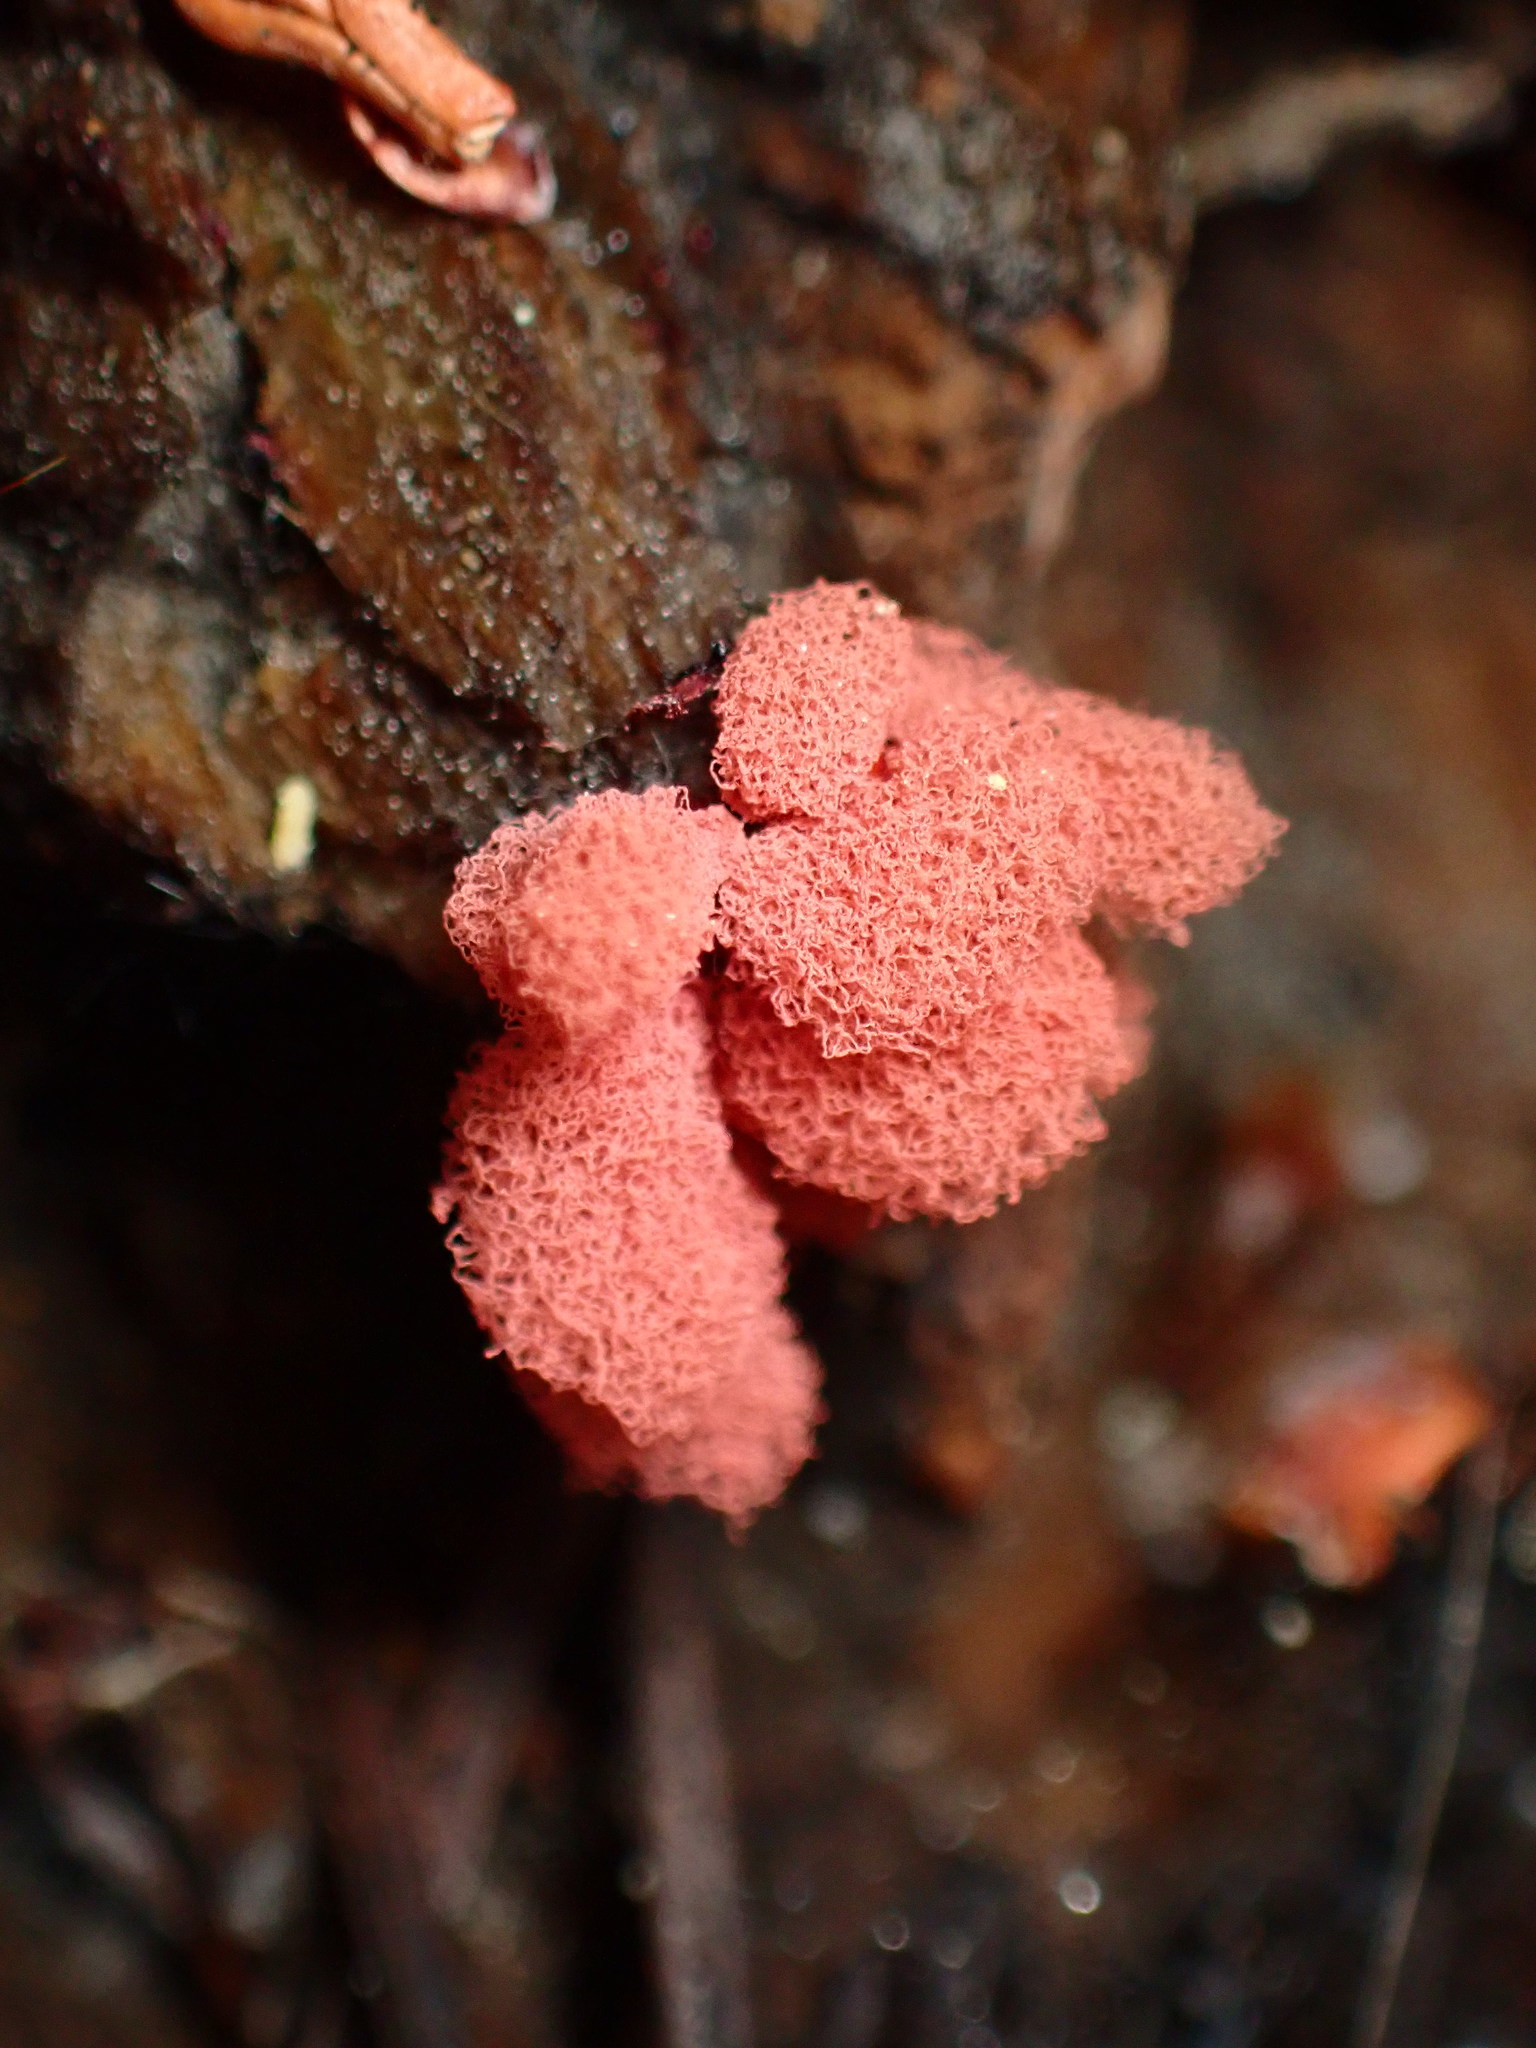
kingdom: Protozoa
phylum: Mycetozoa
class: Myxomycetes
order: Trichiales
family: Arcyriaceae
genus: Arcyria
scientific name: Arcyria denudata
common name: Carnival candy slime mold
